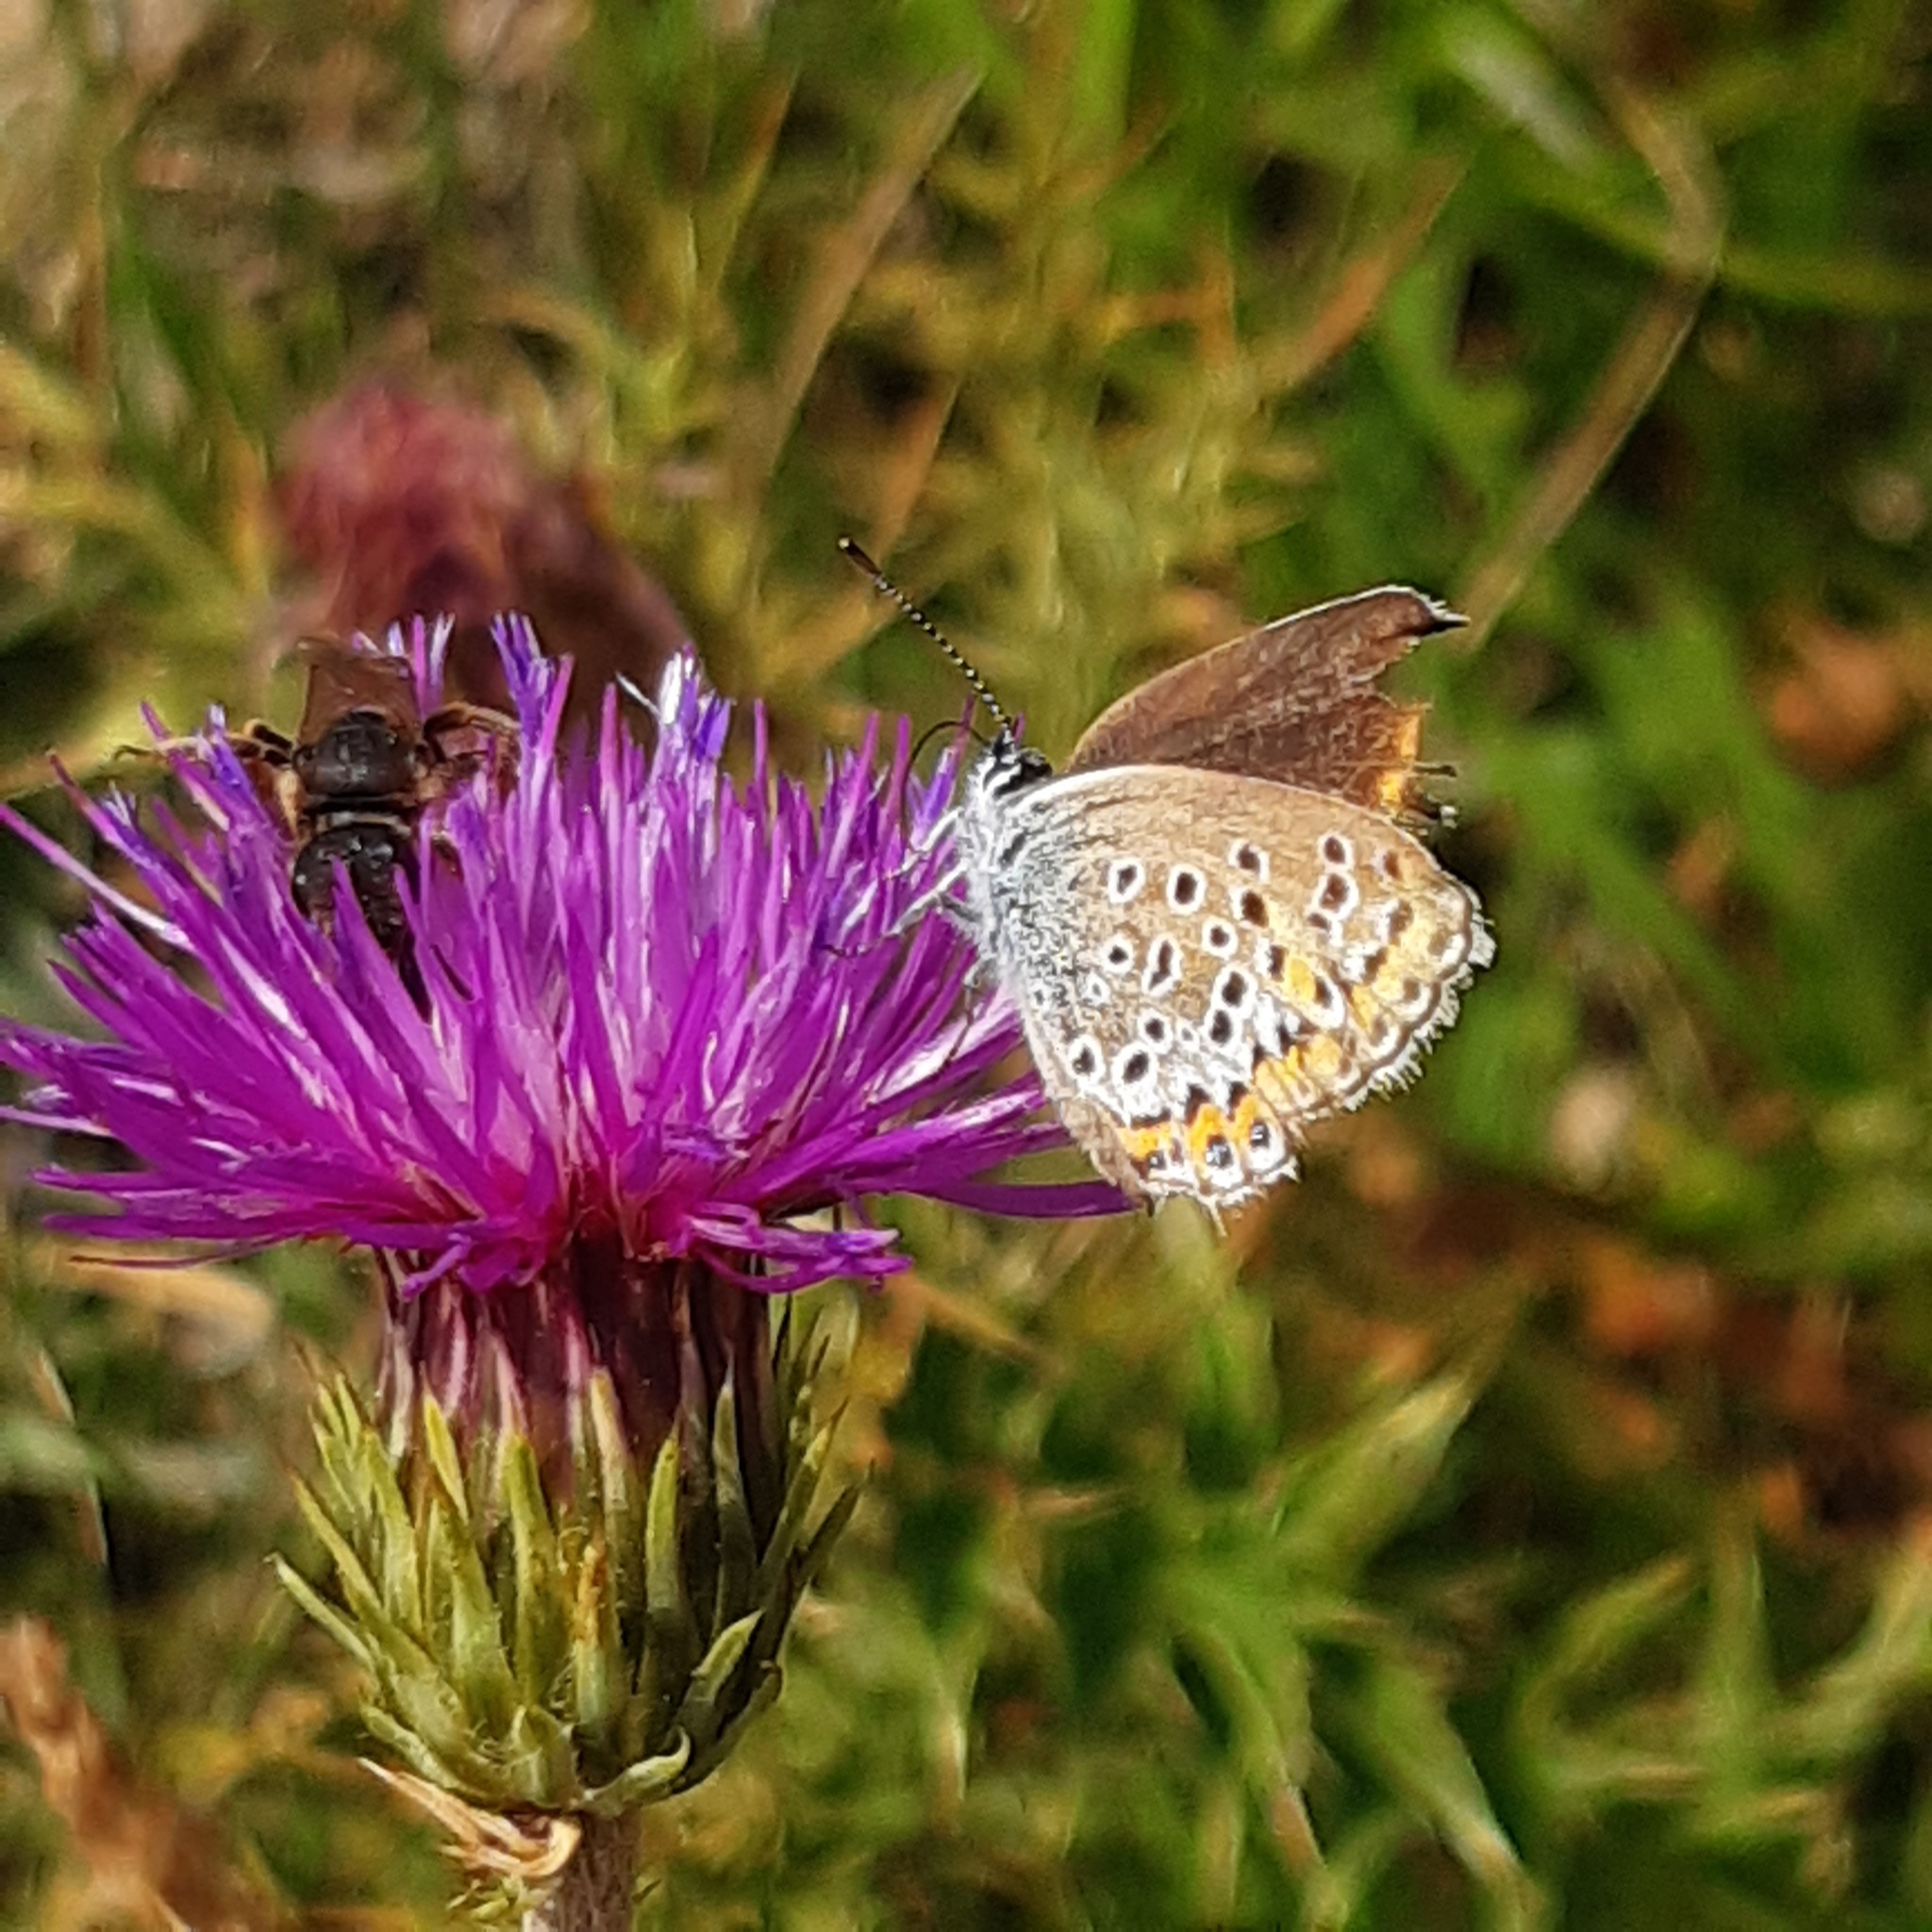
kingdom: Animalia
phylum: Arthropoda
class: Insecta
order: Lepidoptera
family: Lycaenidae
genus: Plebejus
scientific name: Plebejus argus
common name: Silver-studded blue
